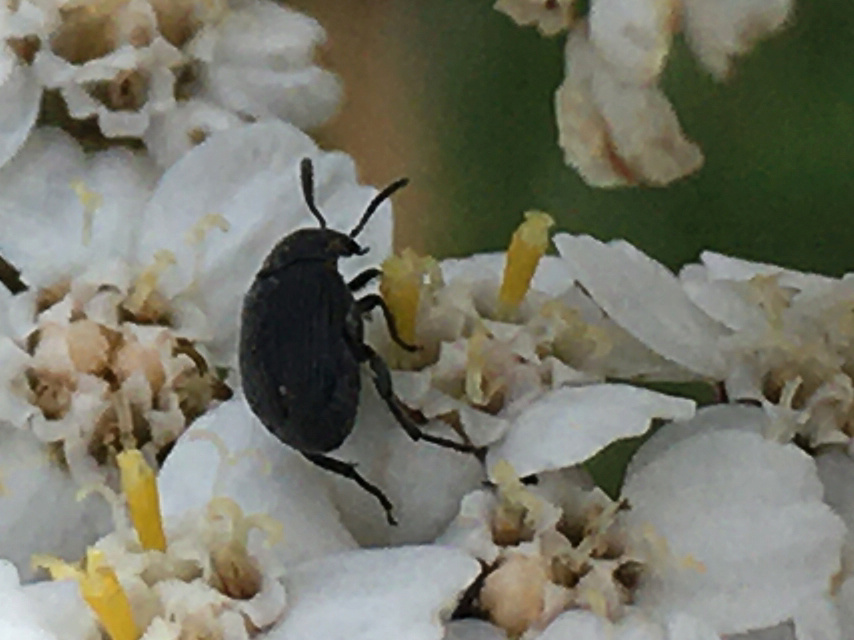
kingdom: Animalia
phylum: Arthropoda
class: Insecta
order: Coleoptera
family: Chrysomelidae
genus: Bruchidius
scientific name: Bruchidius villosus
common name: Scotch broom bruchid
